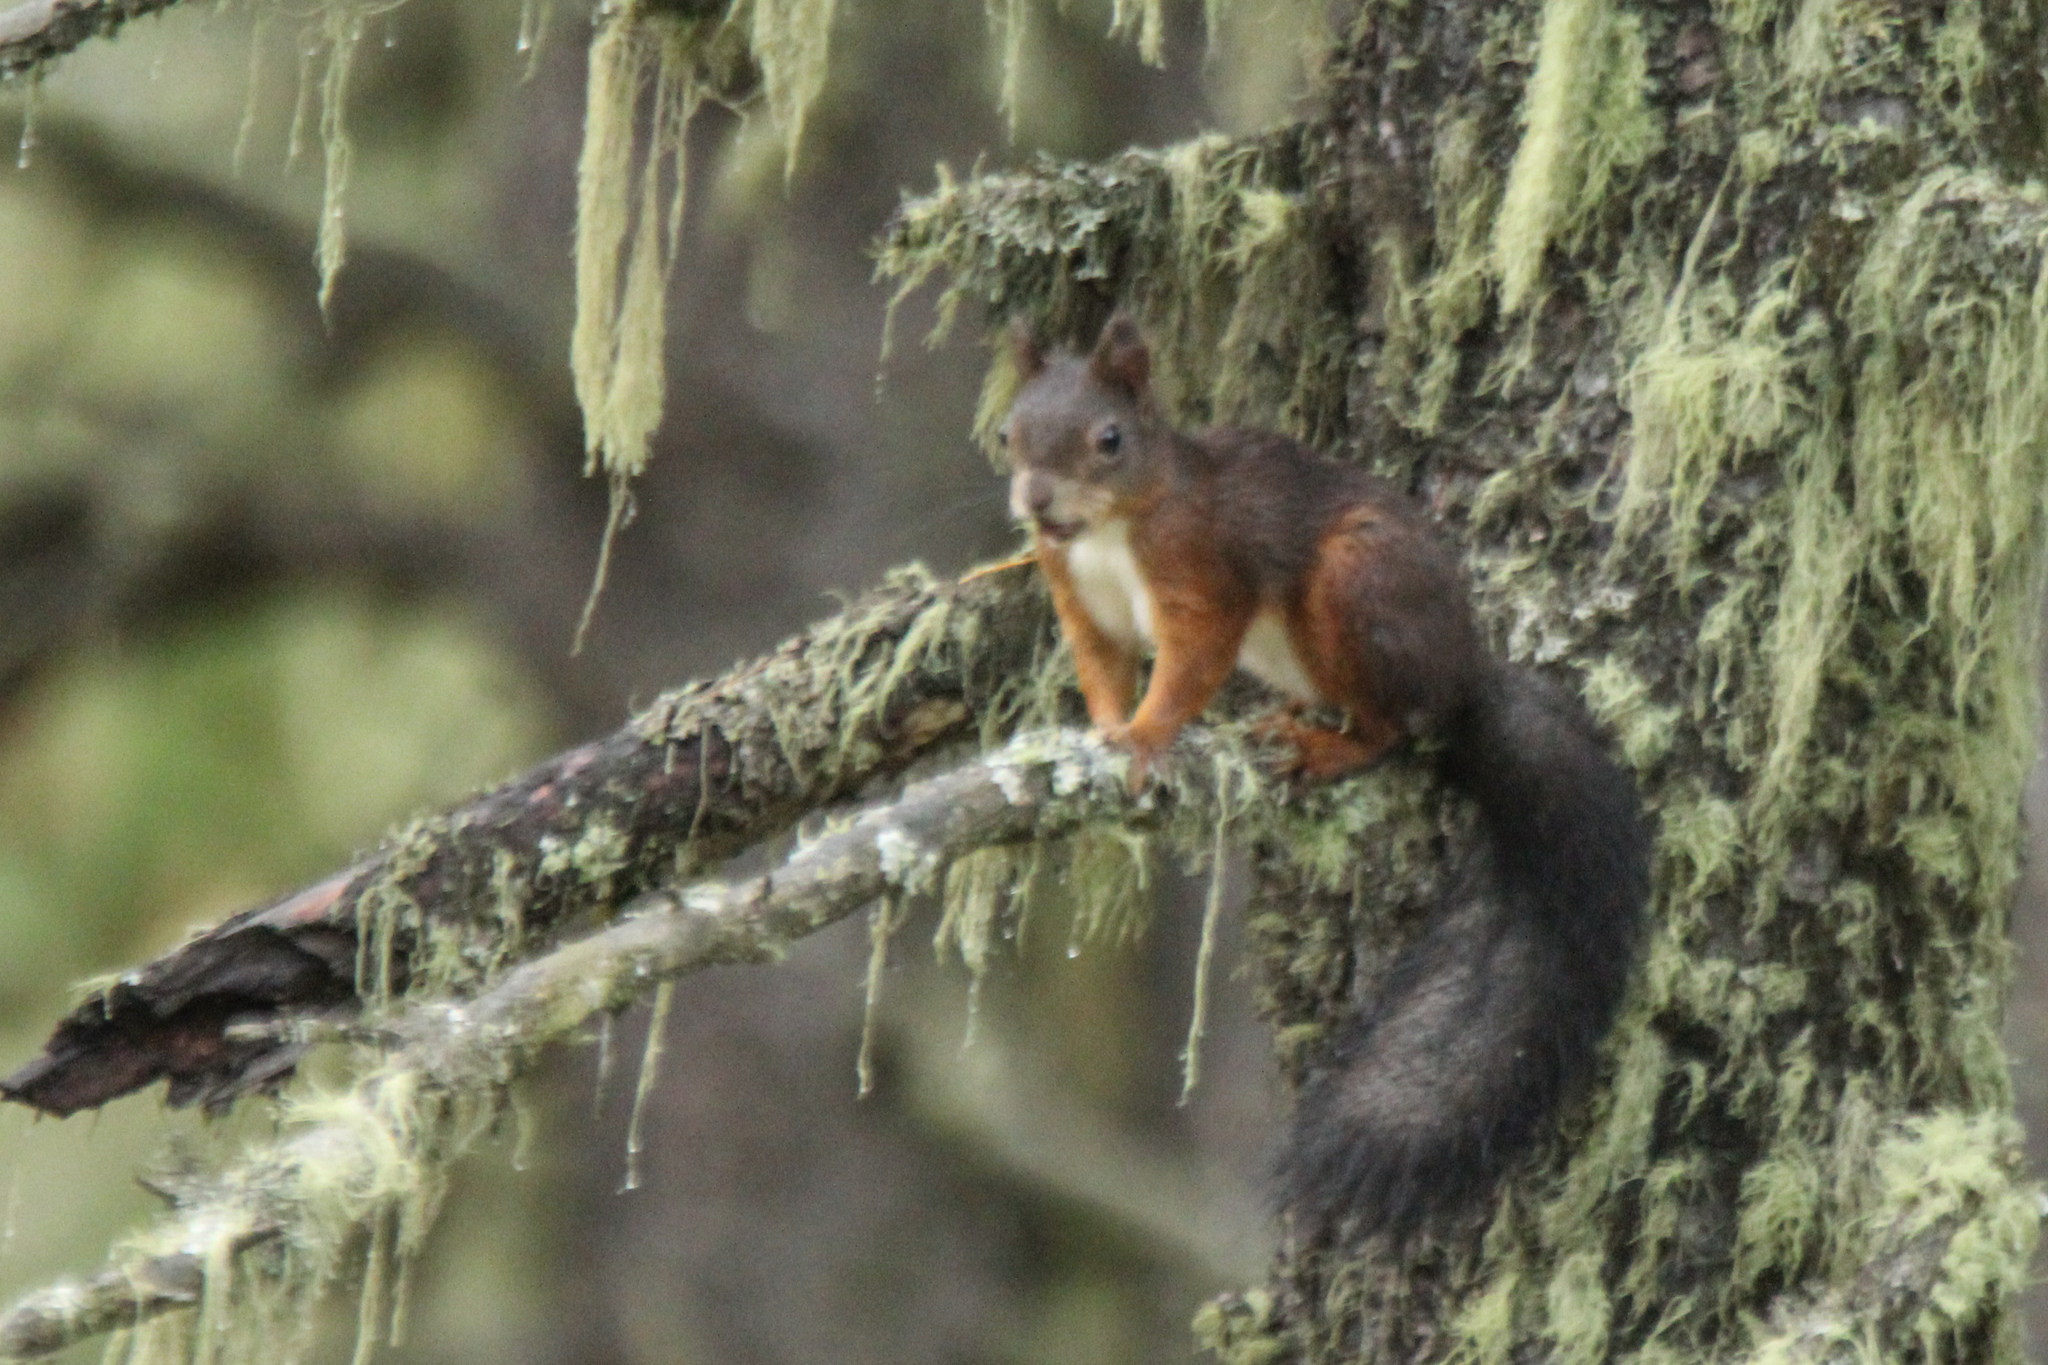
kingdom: Animalia
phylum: Chordata
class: Mammalia
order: Rodentia
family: Sciuridae
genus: Sciurus
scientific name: Sciurus vulgaris
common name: Eurasian red squirrel
